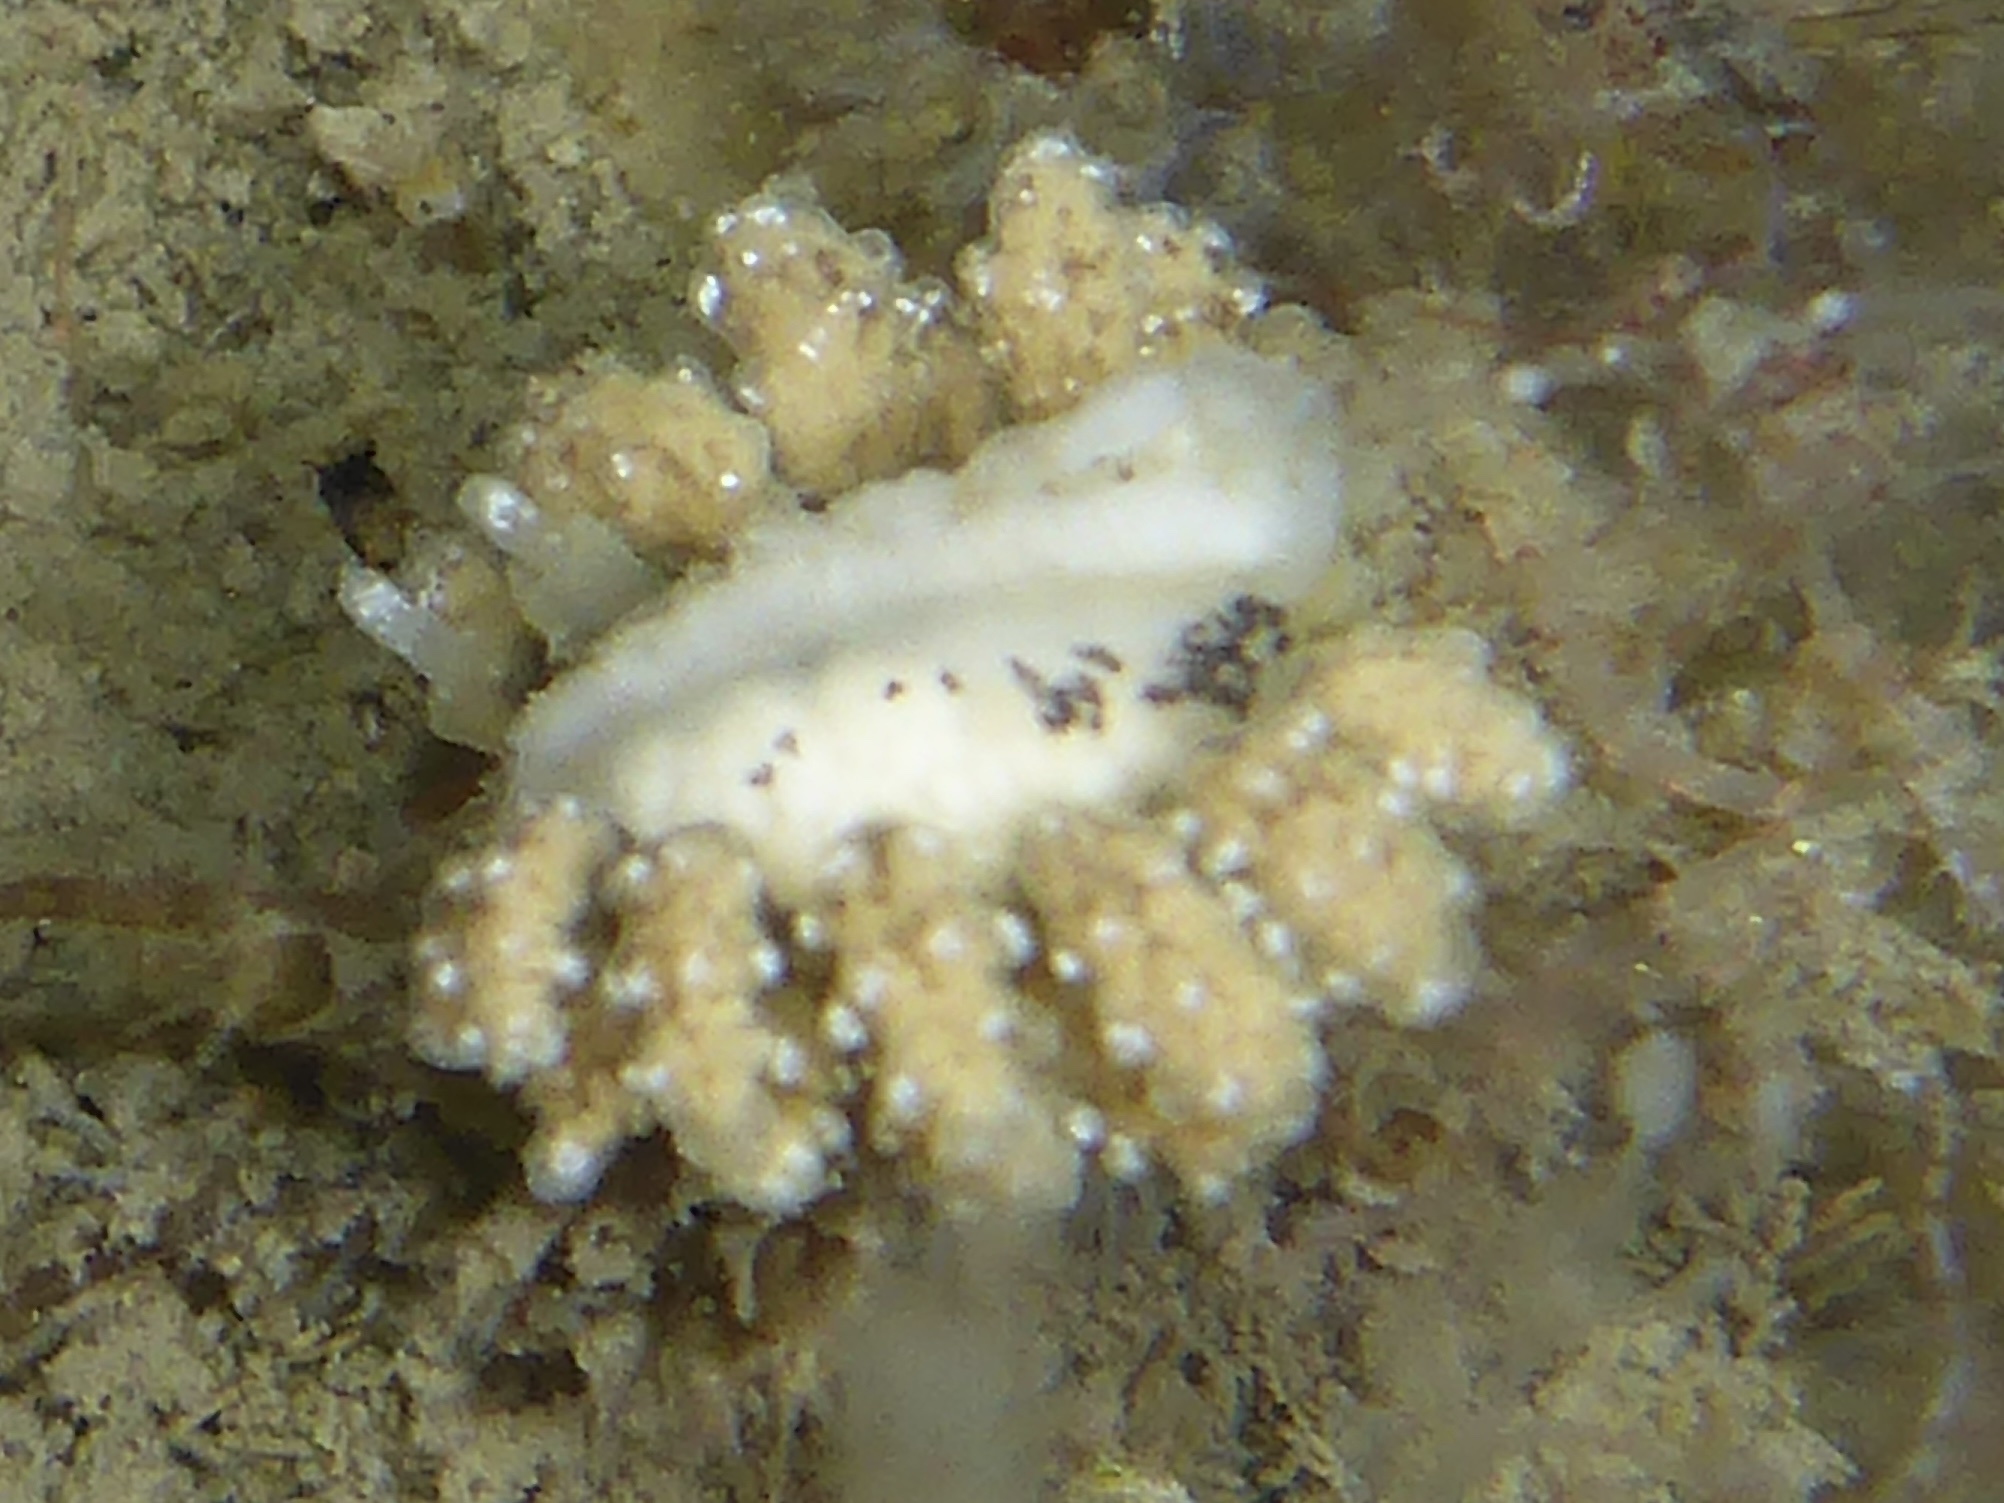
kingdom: Animalia
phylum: Mollusca
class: Gastropoda
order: Nudibranchia
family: Dotidae
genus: Doto
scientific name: Doto kya
